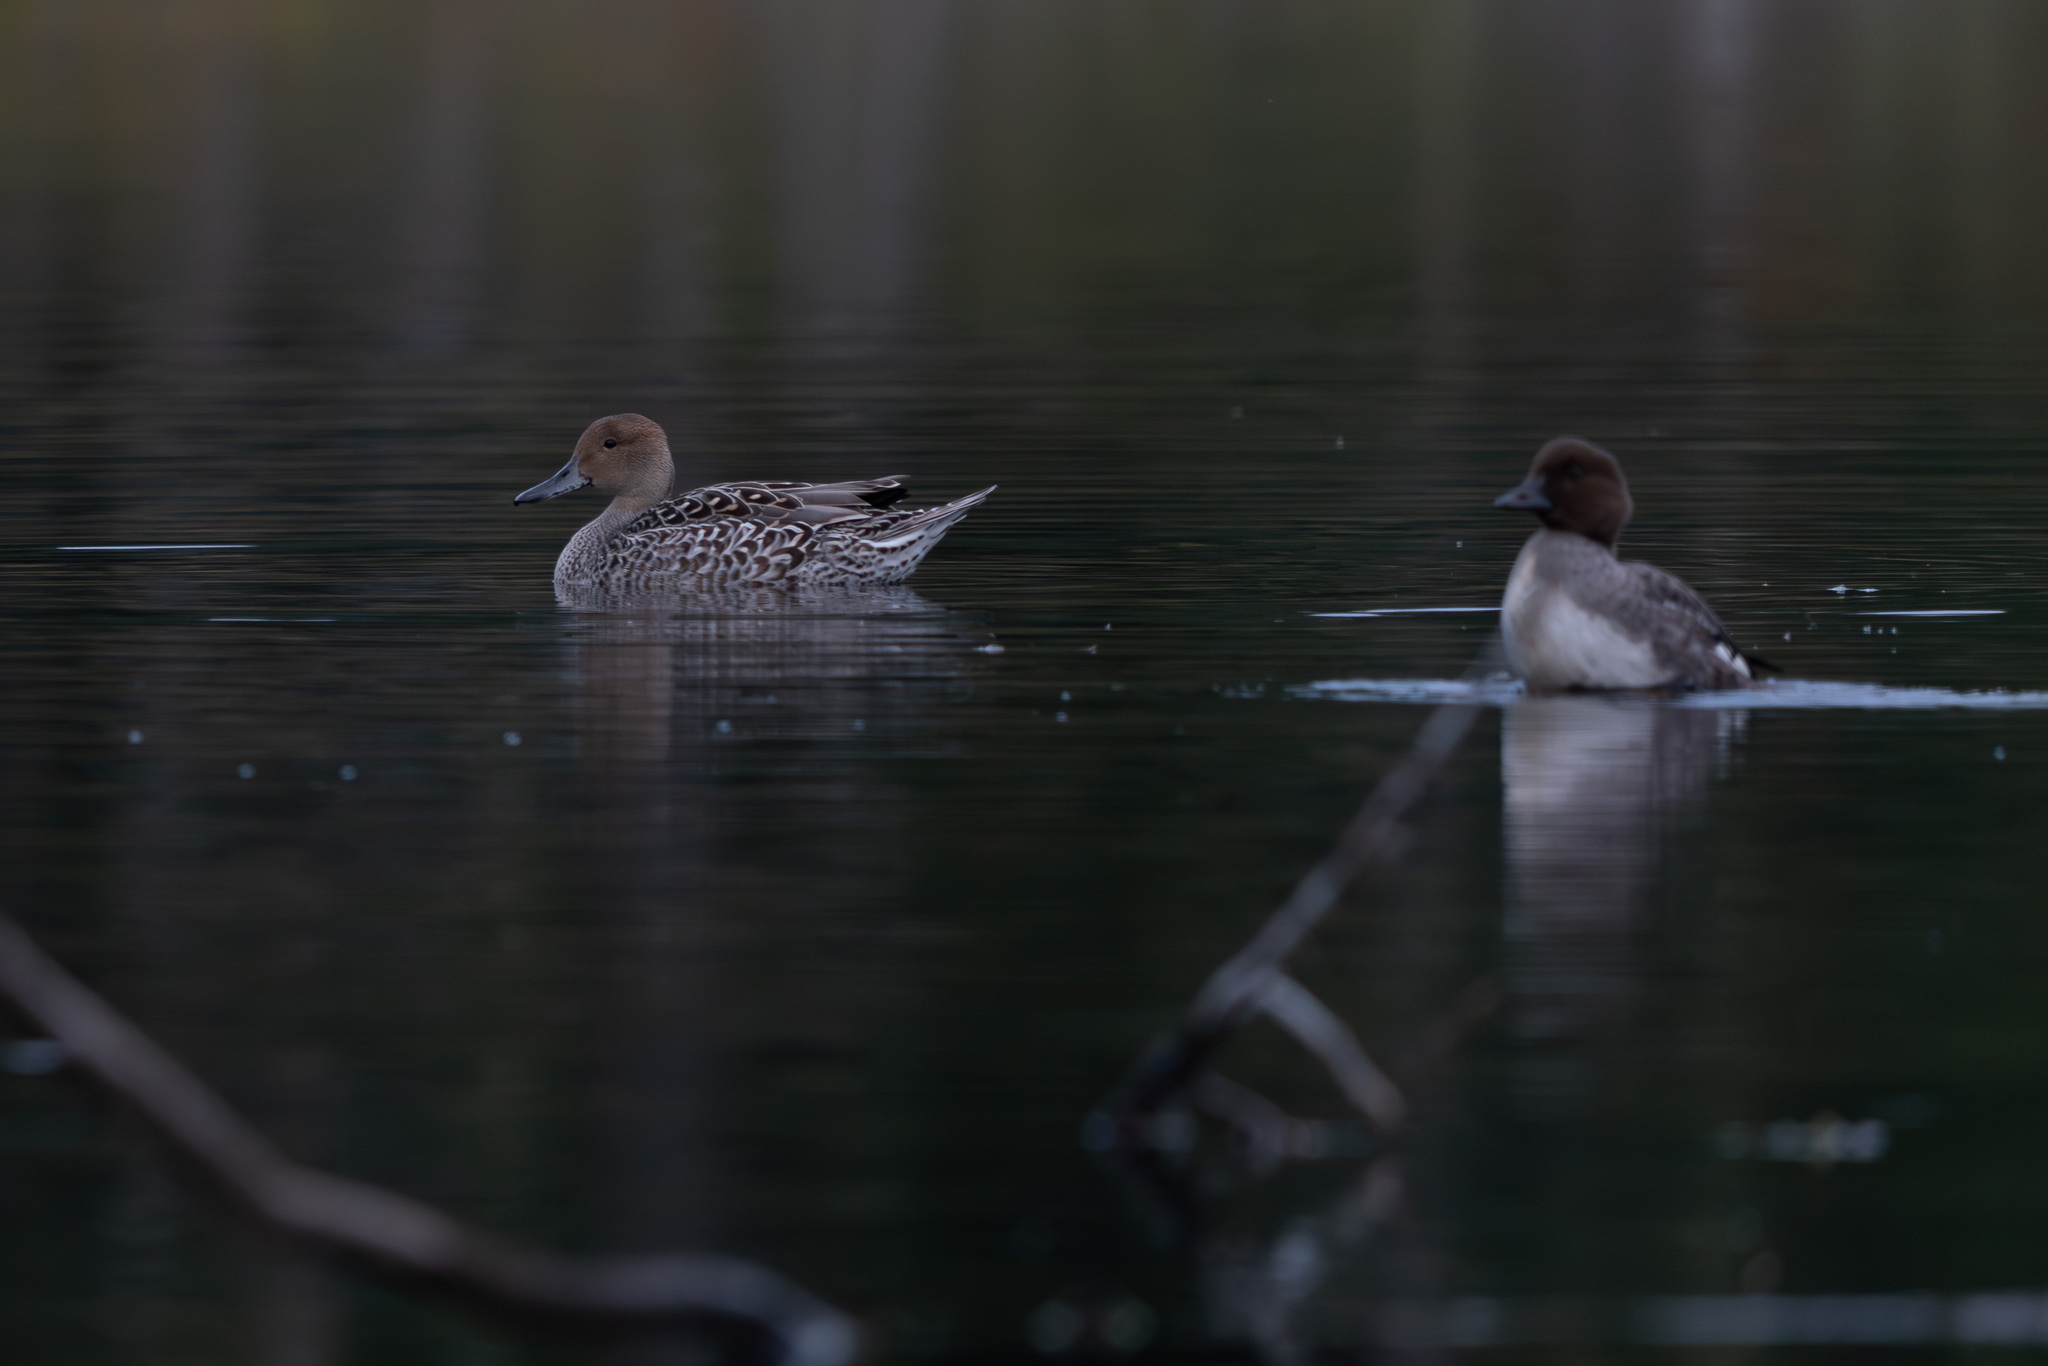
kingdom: Animalia
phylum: Chordata
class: Aves
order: Anseriformes
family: Anatidae
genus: Anas
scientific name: Anas acuta
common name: Northern pintail
